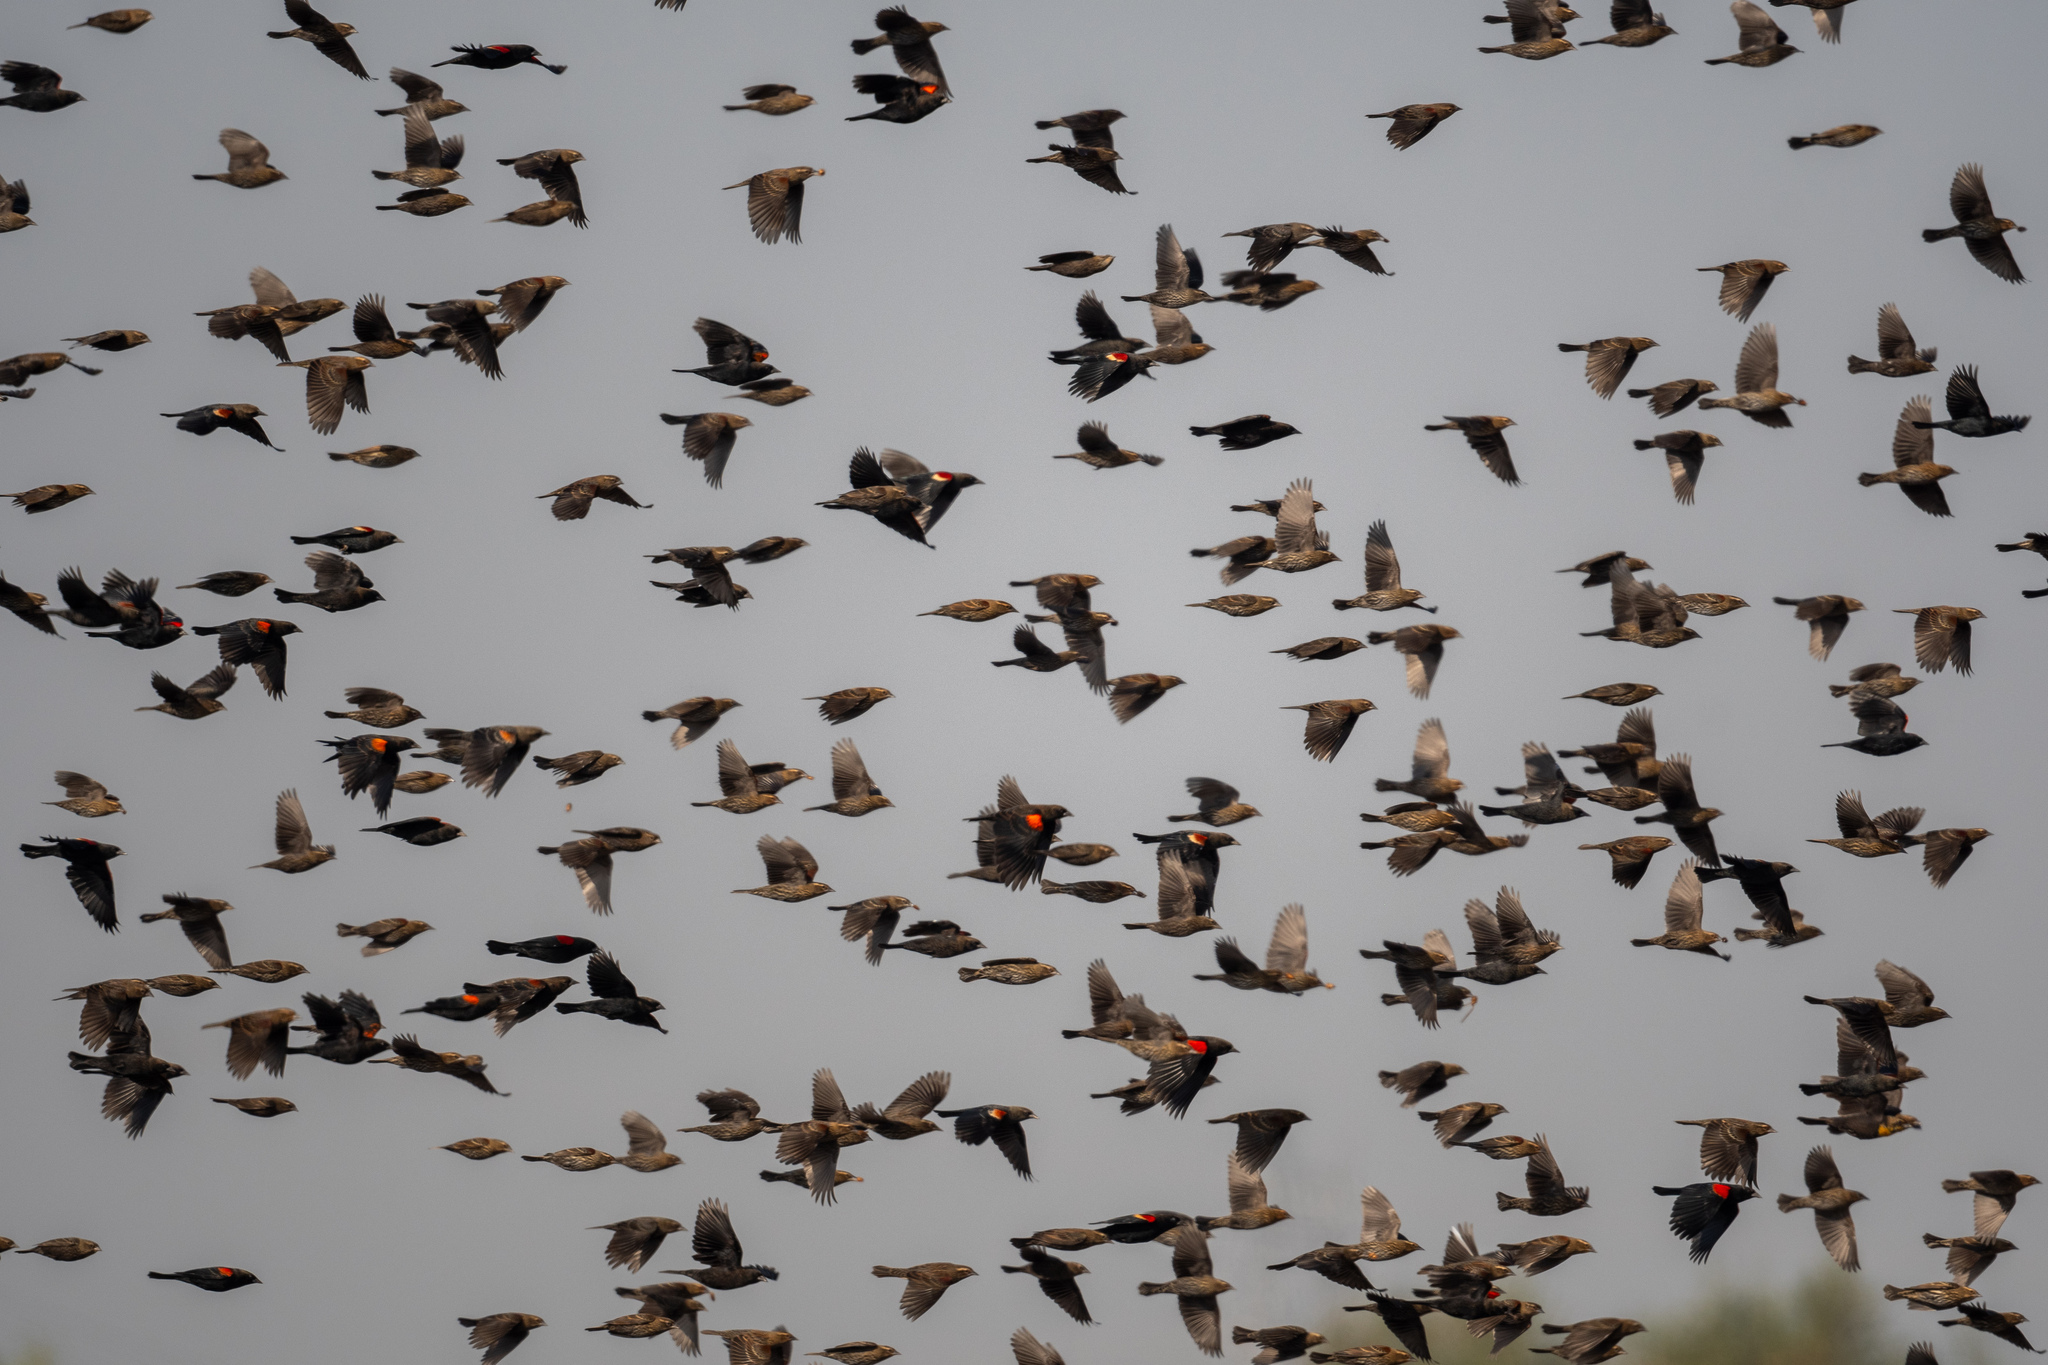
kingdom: Animalia
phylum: Chordata
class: Aves
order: Passeriformes
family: Icteridae
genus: Agelaius
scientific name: Agelaius phoeniceus
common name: Red-winged blackbird
